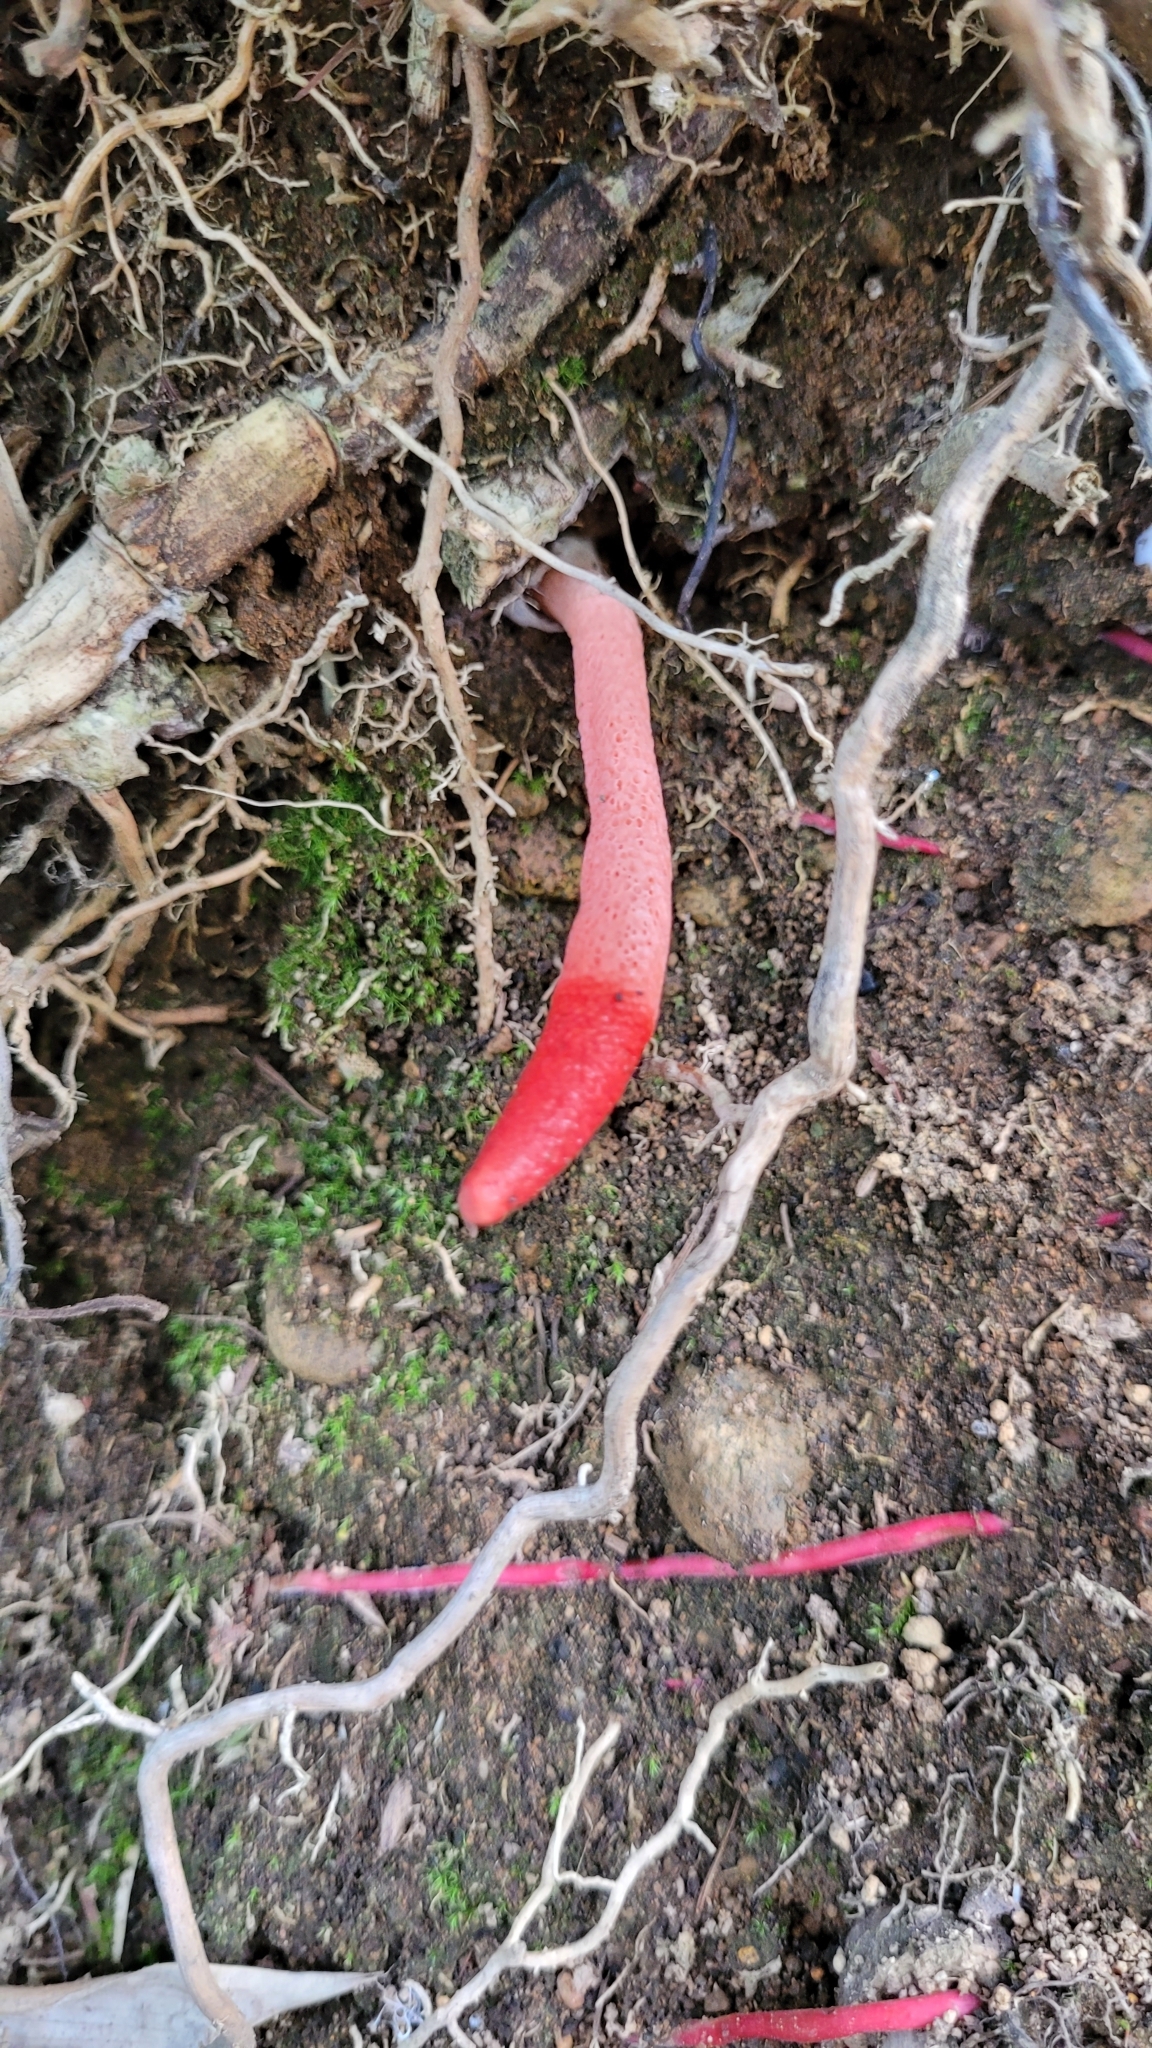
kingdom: Fungi
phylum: Basidiomycota
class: Agaricomycetes
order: Phallales
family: Phallaceae
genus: Mutinus
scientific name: Mutinus ravenelii
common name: Red stinkhorn
